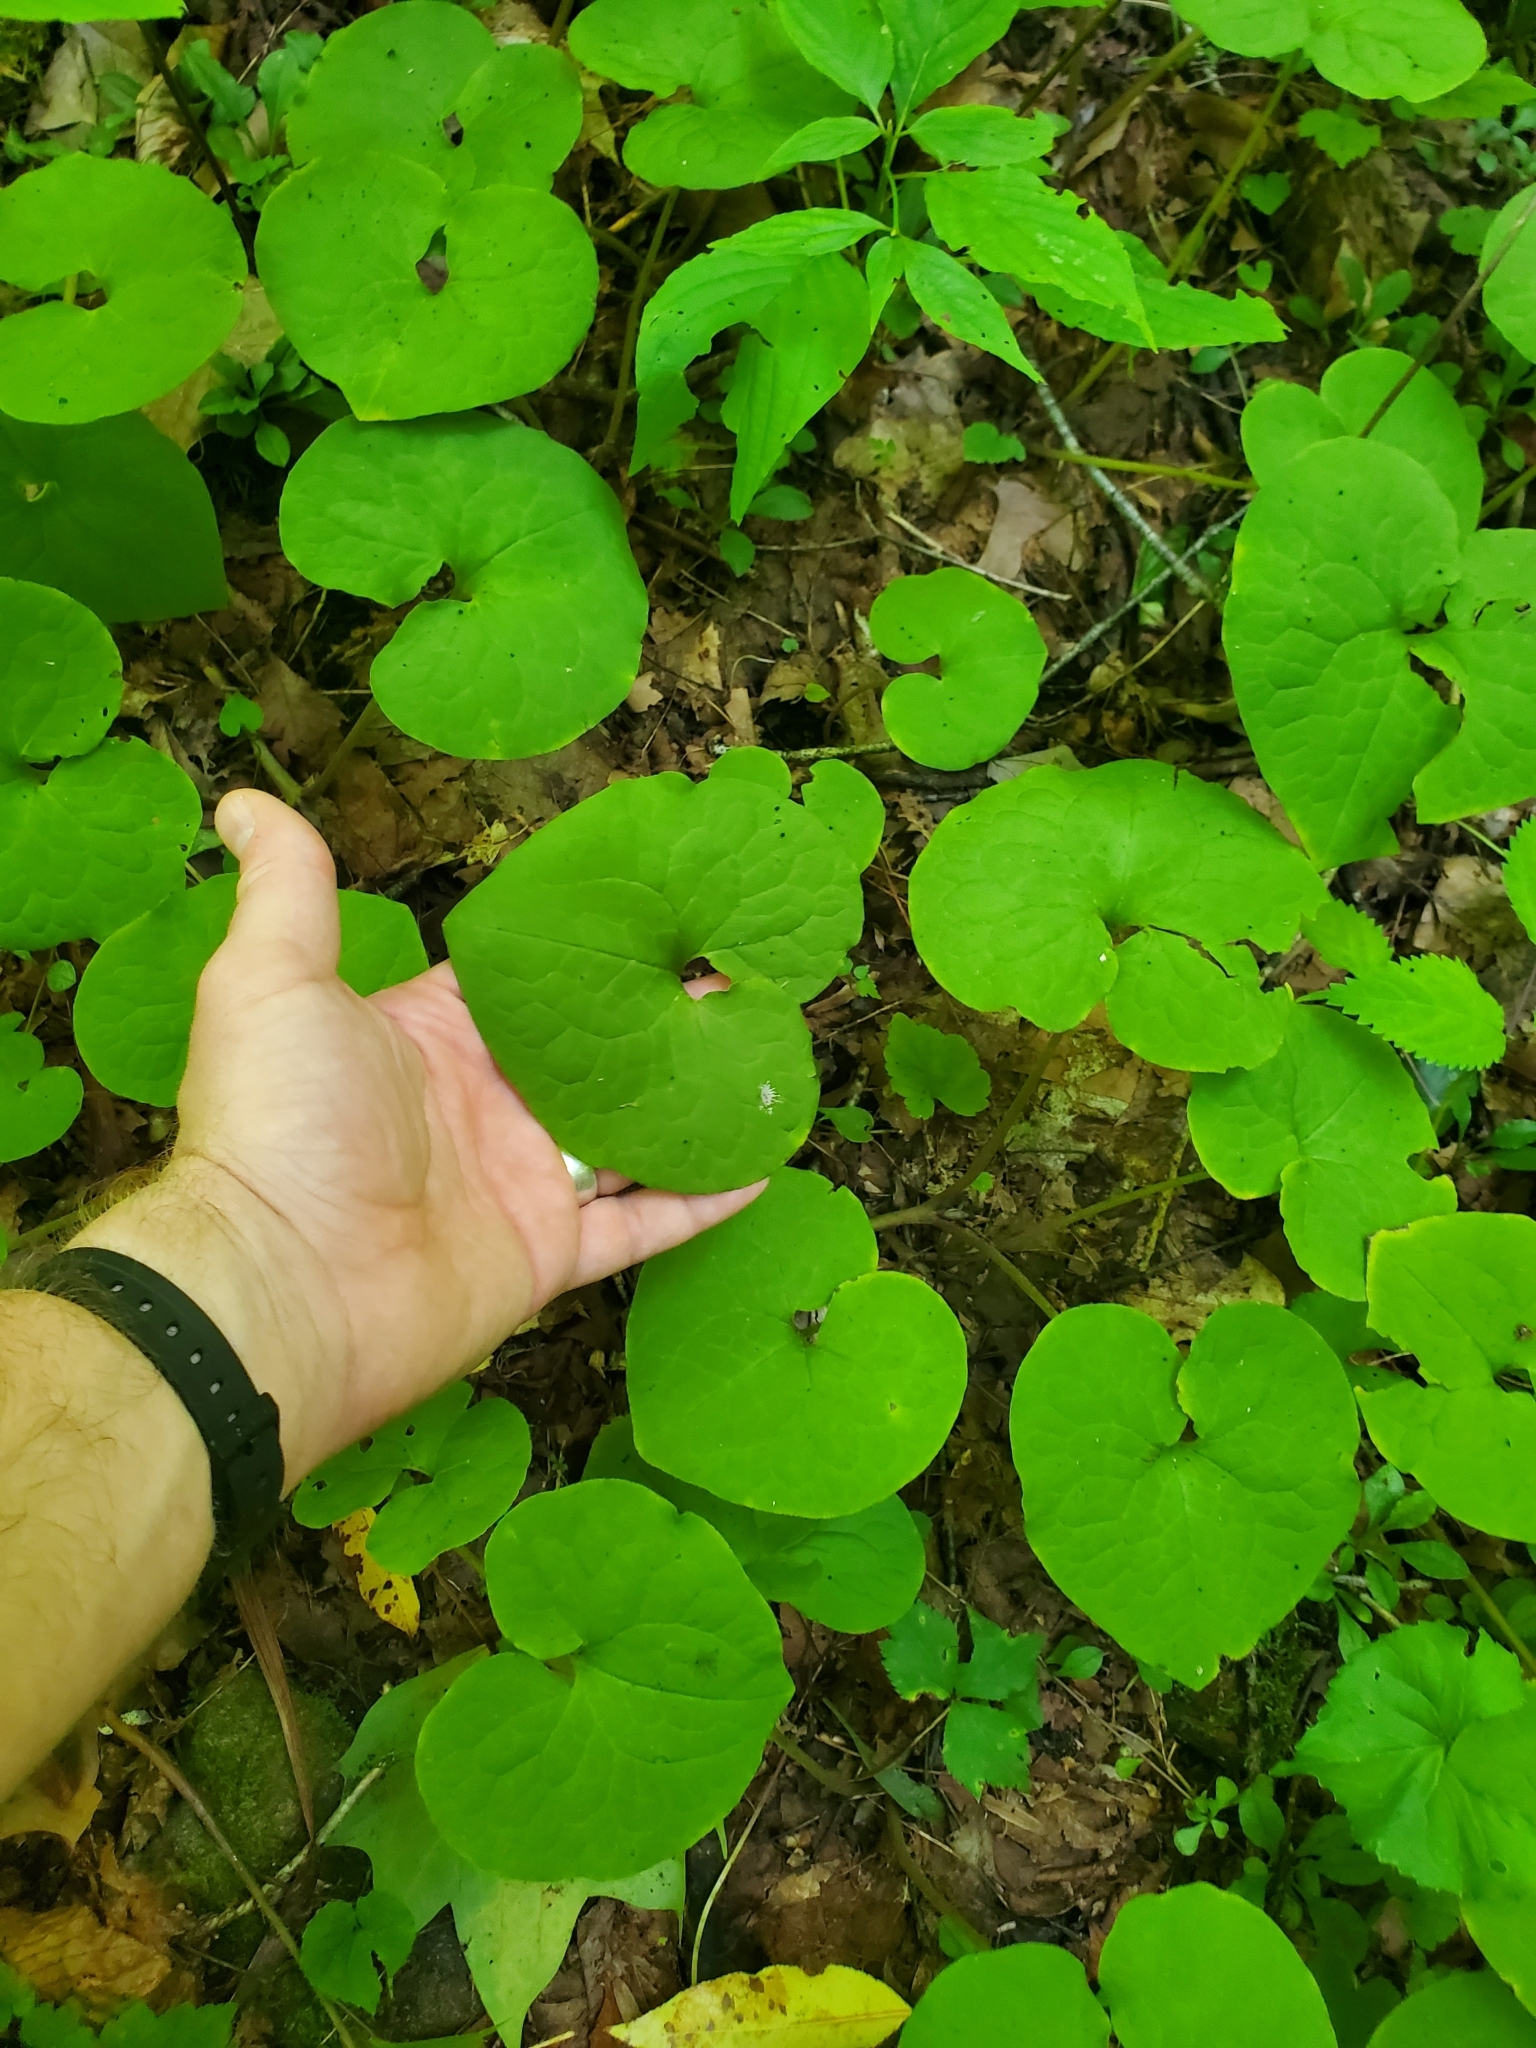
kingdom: Plantae
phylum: Tracheophyta
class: Magnoliopsida
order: Piperales
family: Aristolochiaceae
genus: Asarum
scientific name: Asarum canadense
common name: Wild ginger
